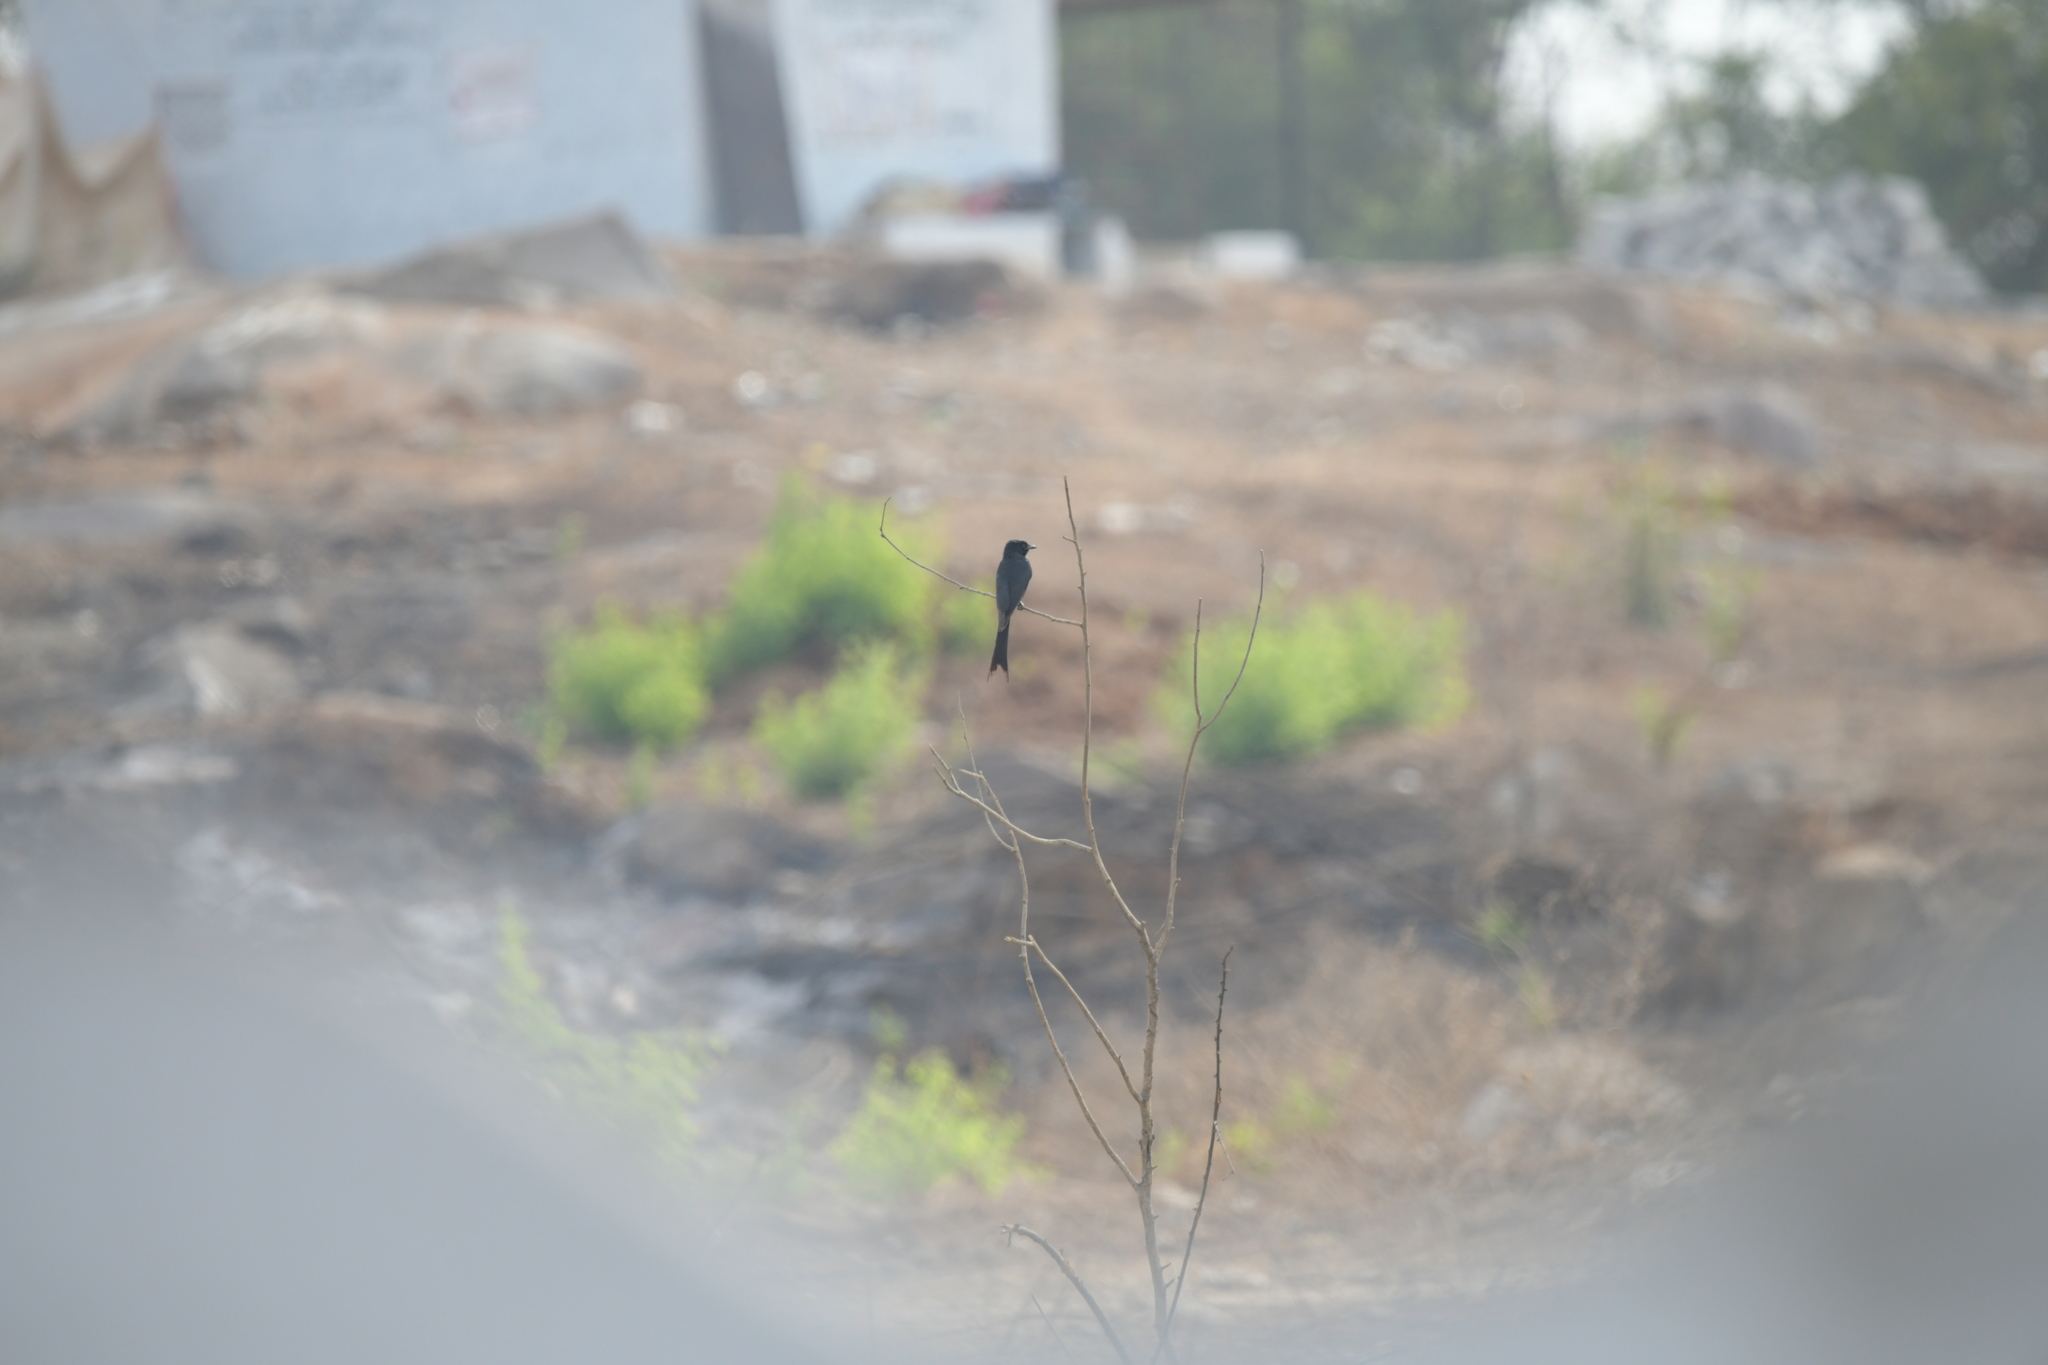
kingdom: Animalia
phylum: Chordata
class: Aves
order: Passeriformes
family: Dicruridae
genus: Dicrurus
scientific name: Dicrurus macrocercus
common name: Black drongo
